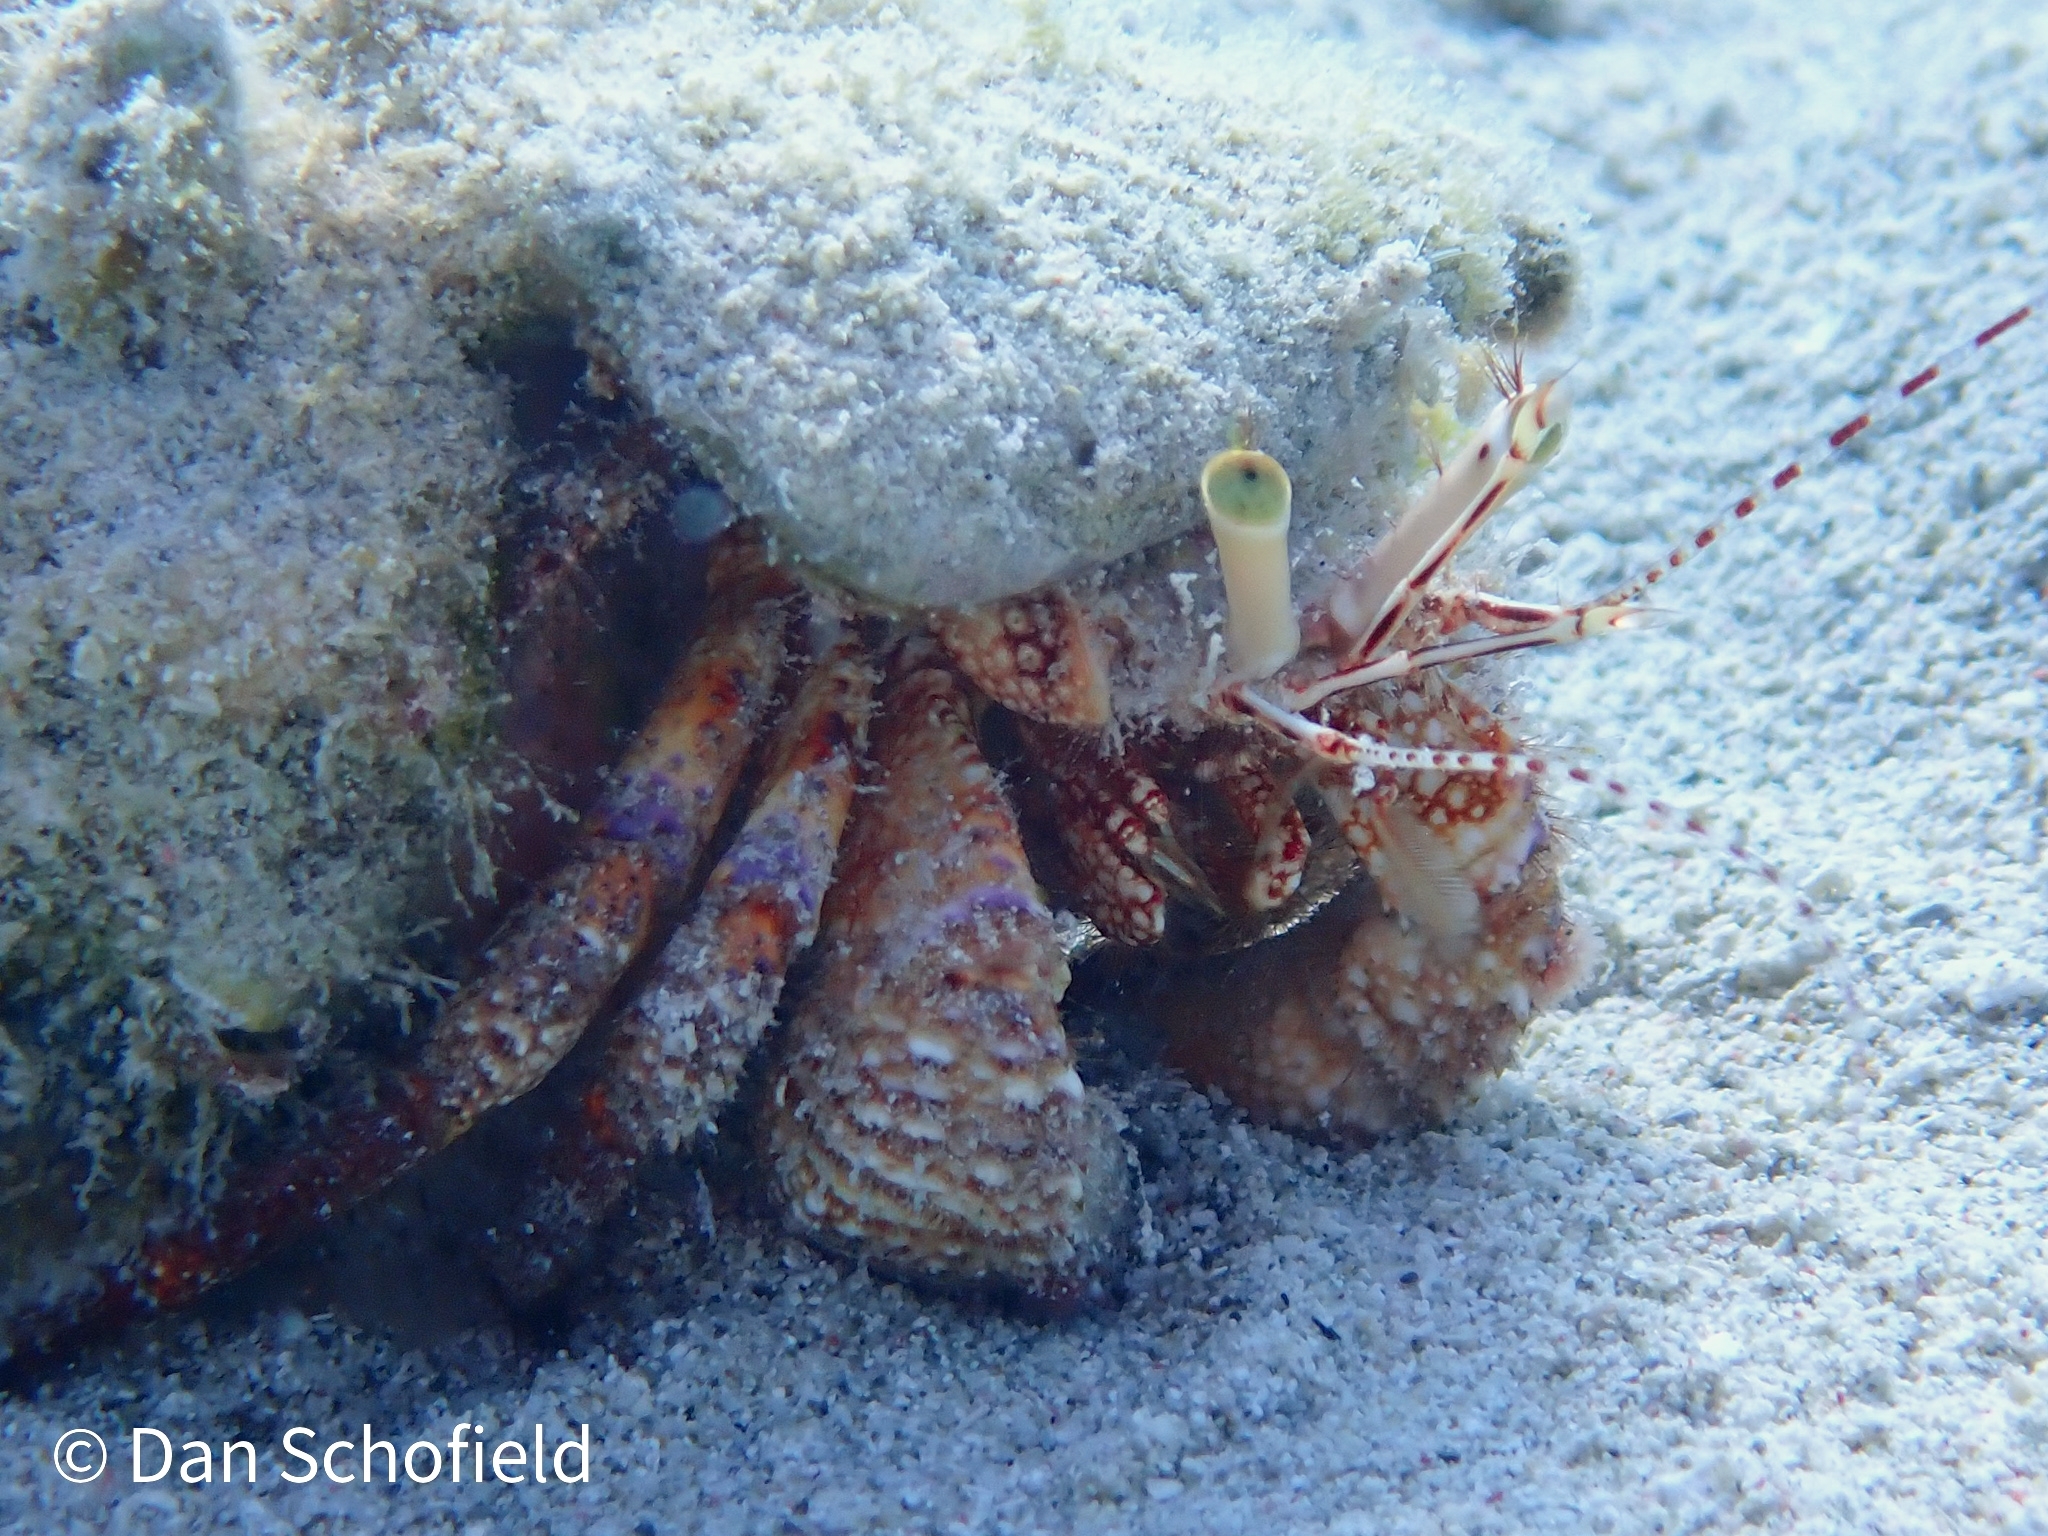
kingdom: Animalia
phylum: Arthropoda
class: Malacostraca
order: Decapoda
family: Diogenidae
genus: Petrochirus
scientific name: Petrochirus diogenes
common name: Giant hermit crab
